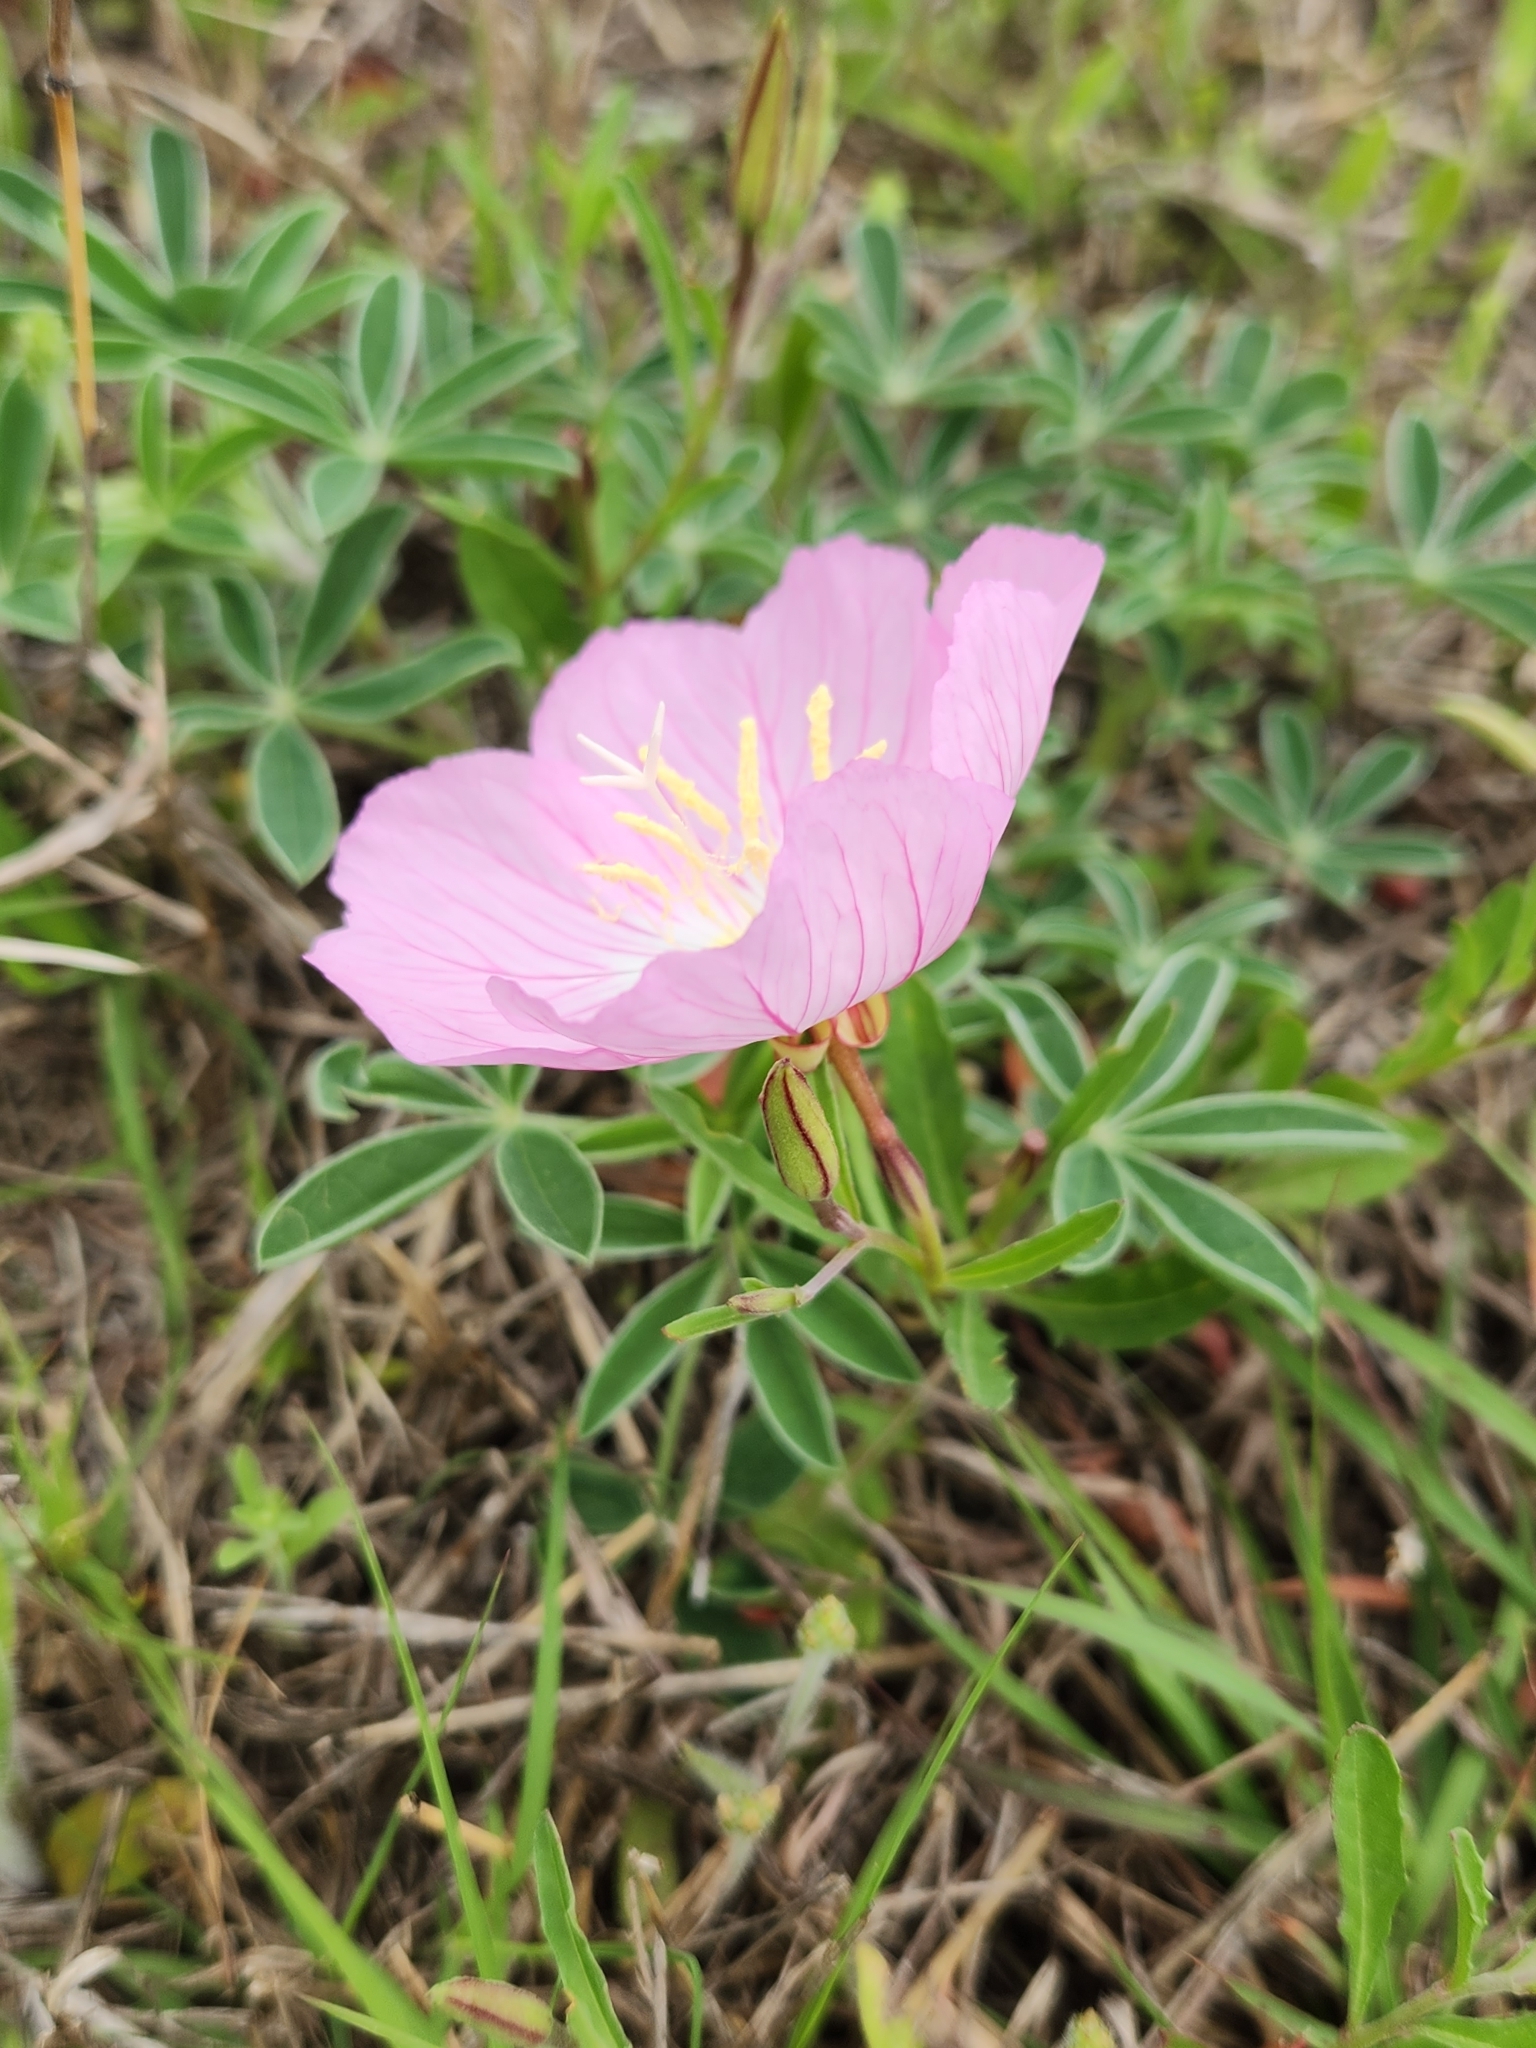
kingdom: Plantae
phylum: Tracheophyta
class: Magnoliopsida
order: Myrtales
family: Onagraceae
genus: Oenothera
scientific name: Oenothera speciosa
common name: White evening-primrose
